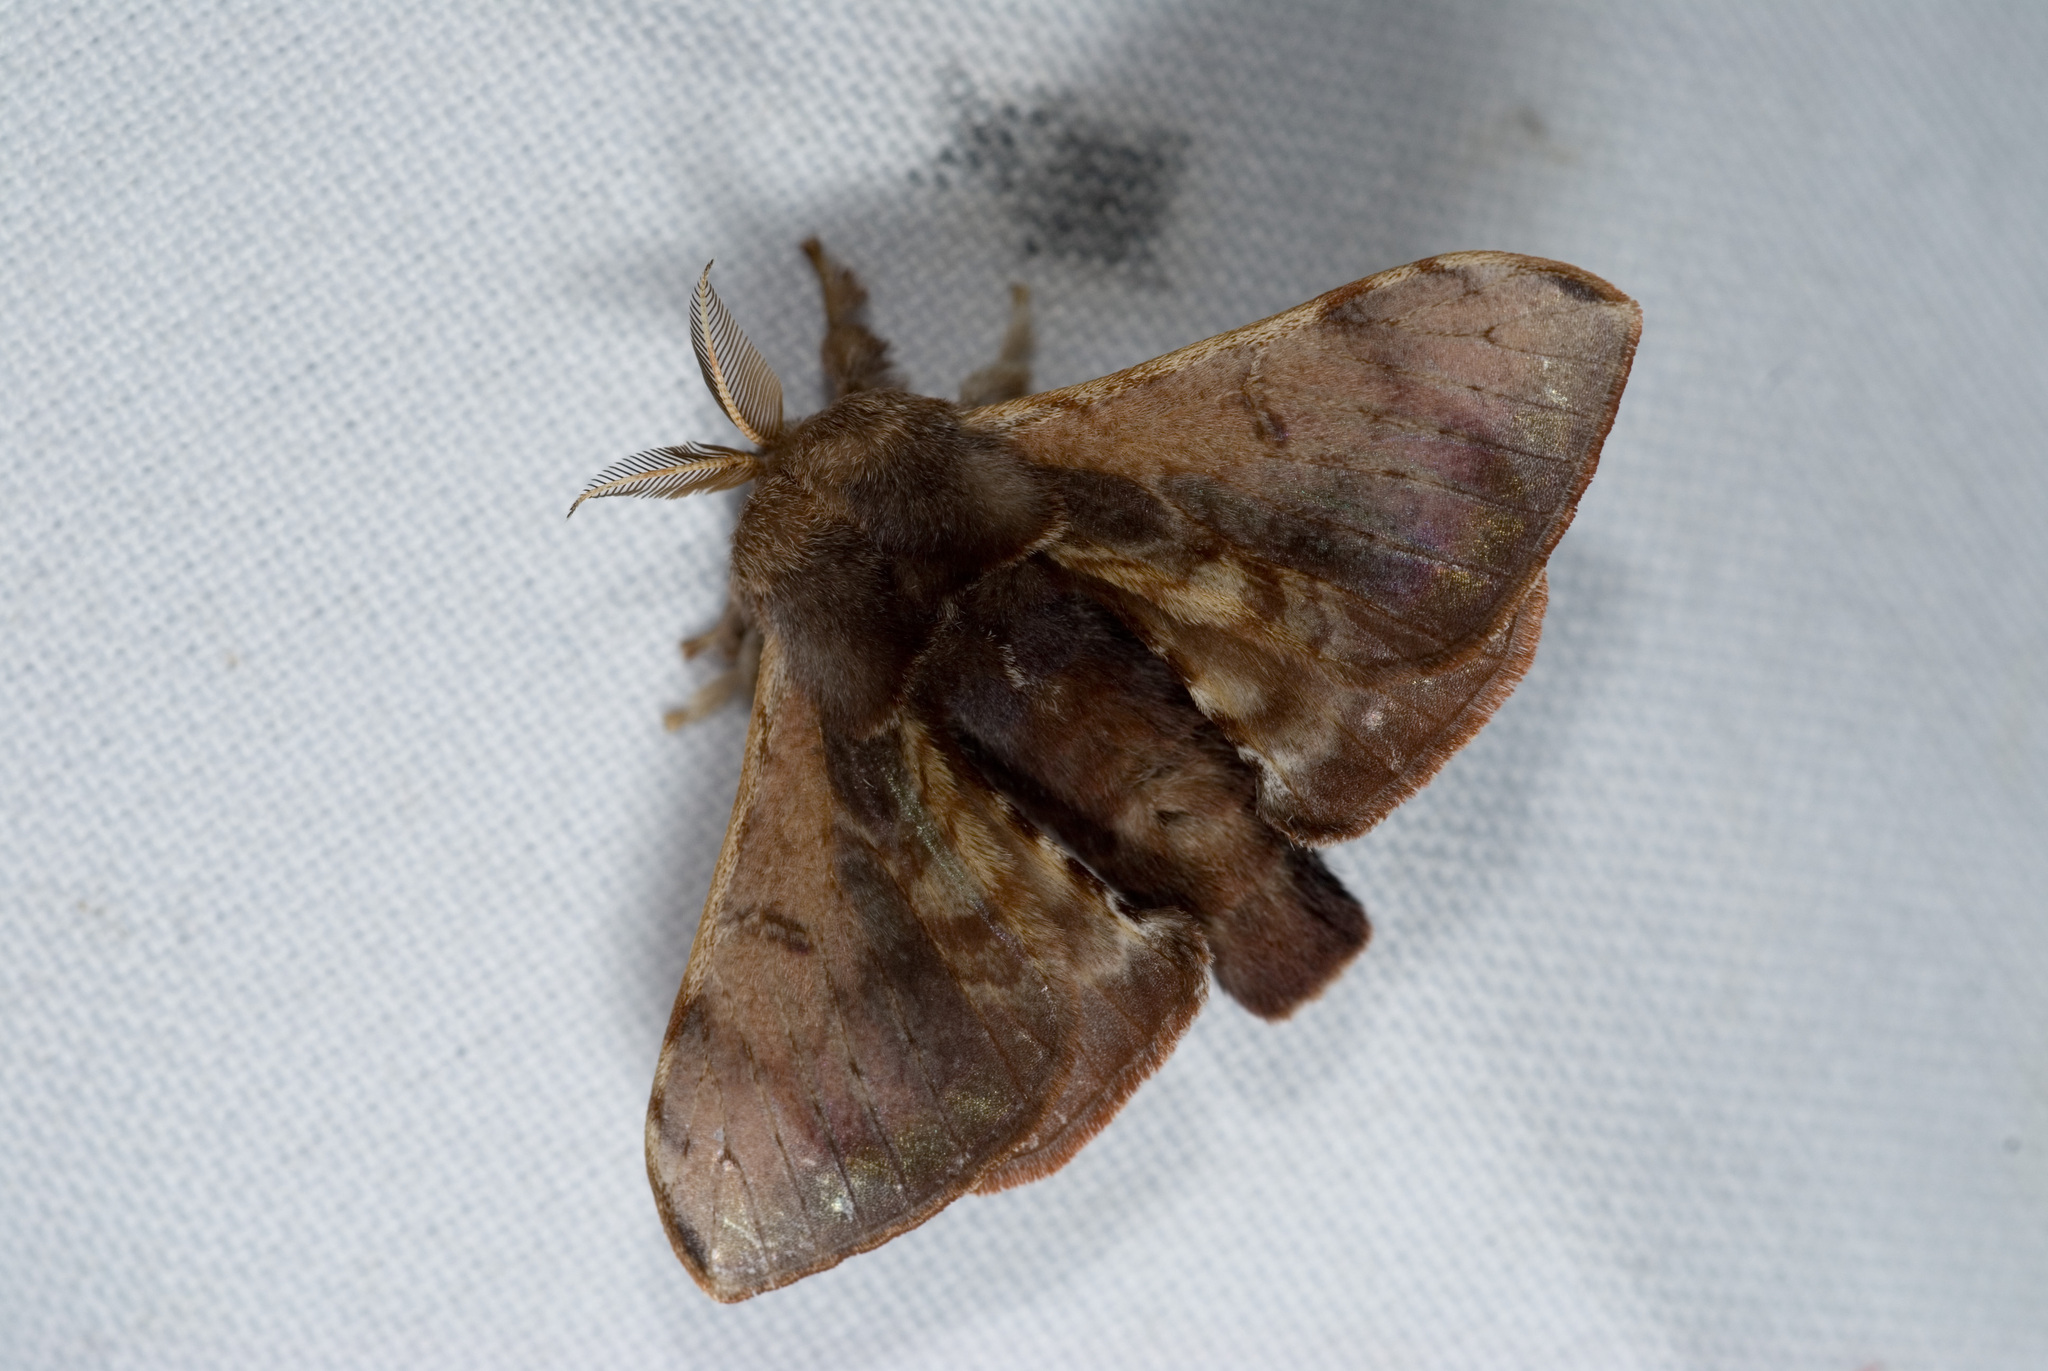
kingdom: Animalia
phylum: Arthropoda
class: Insecta
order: Lepidoptera
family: Bombycidae
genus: Triuncina
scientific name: Triuncina brunnea
